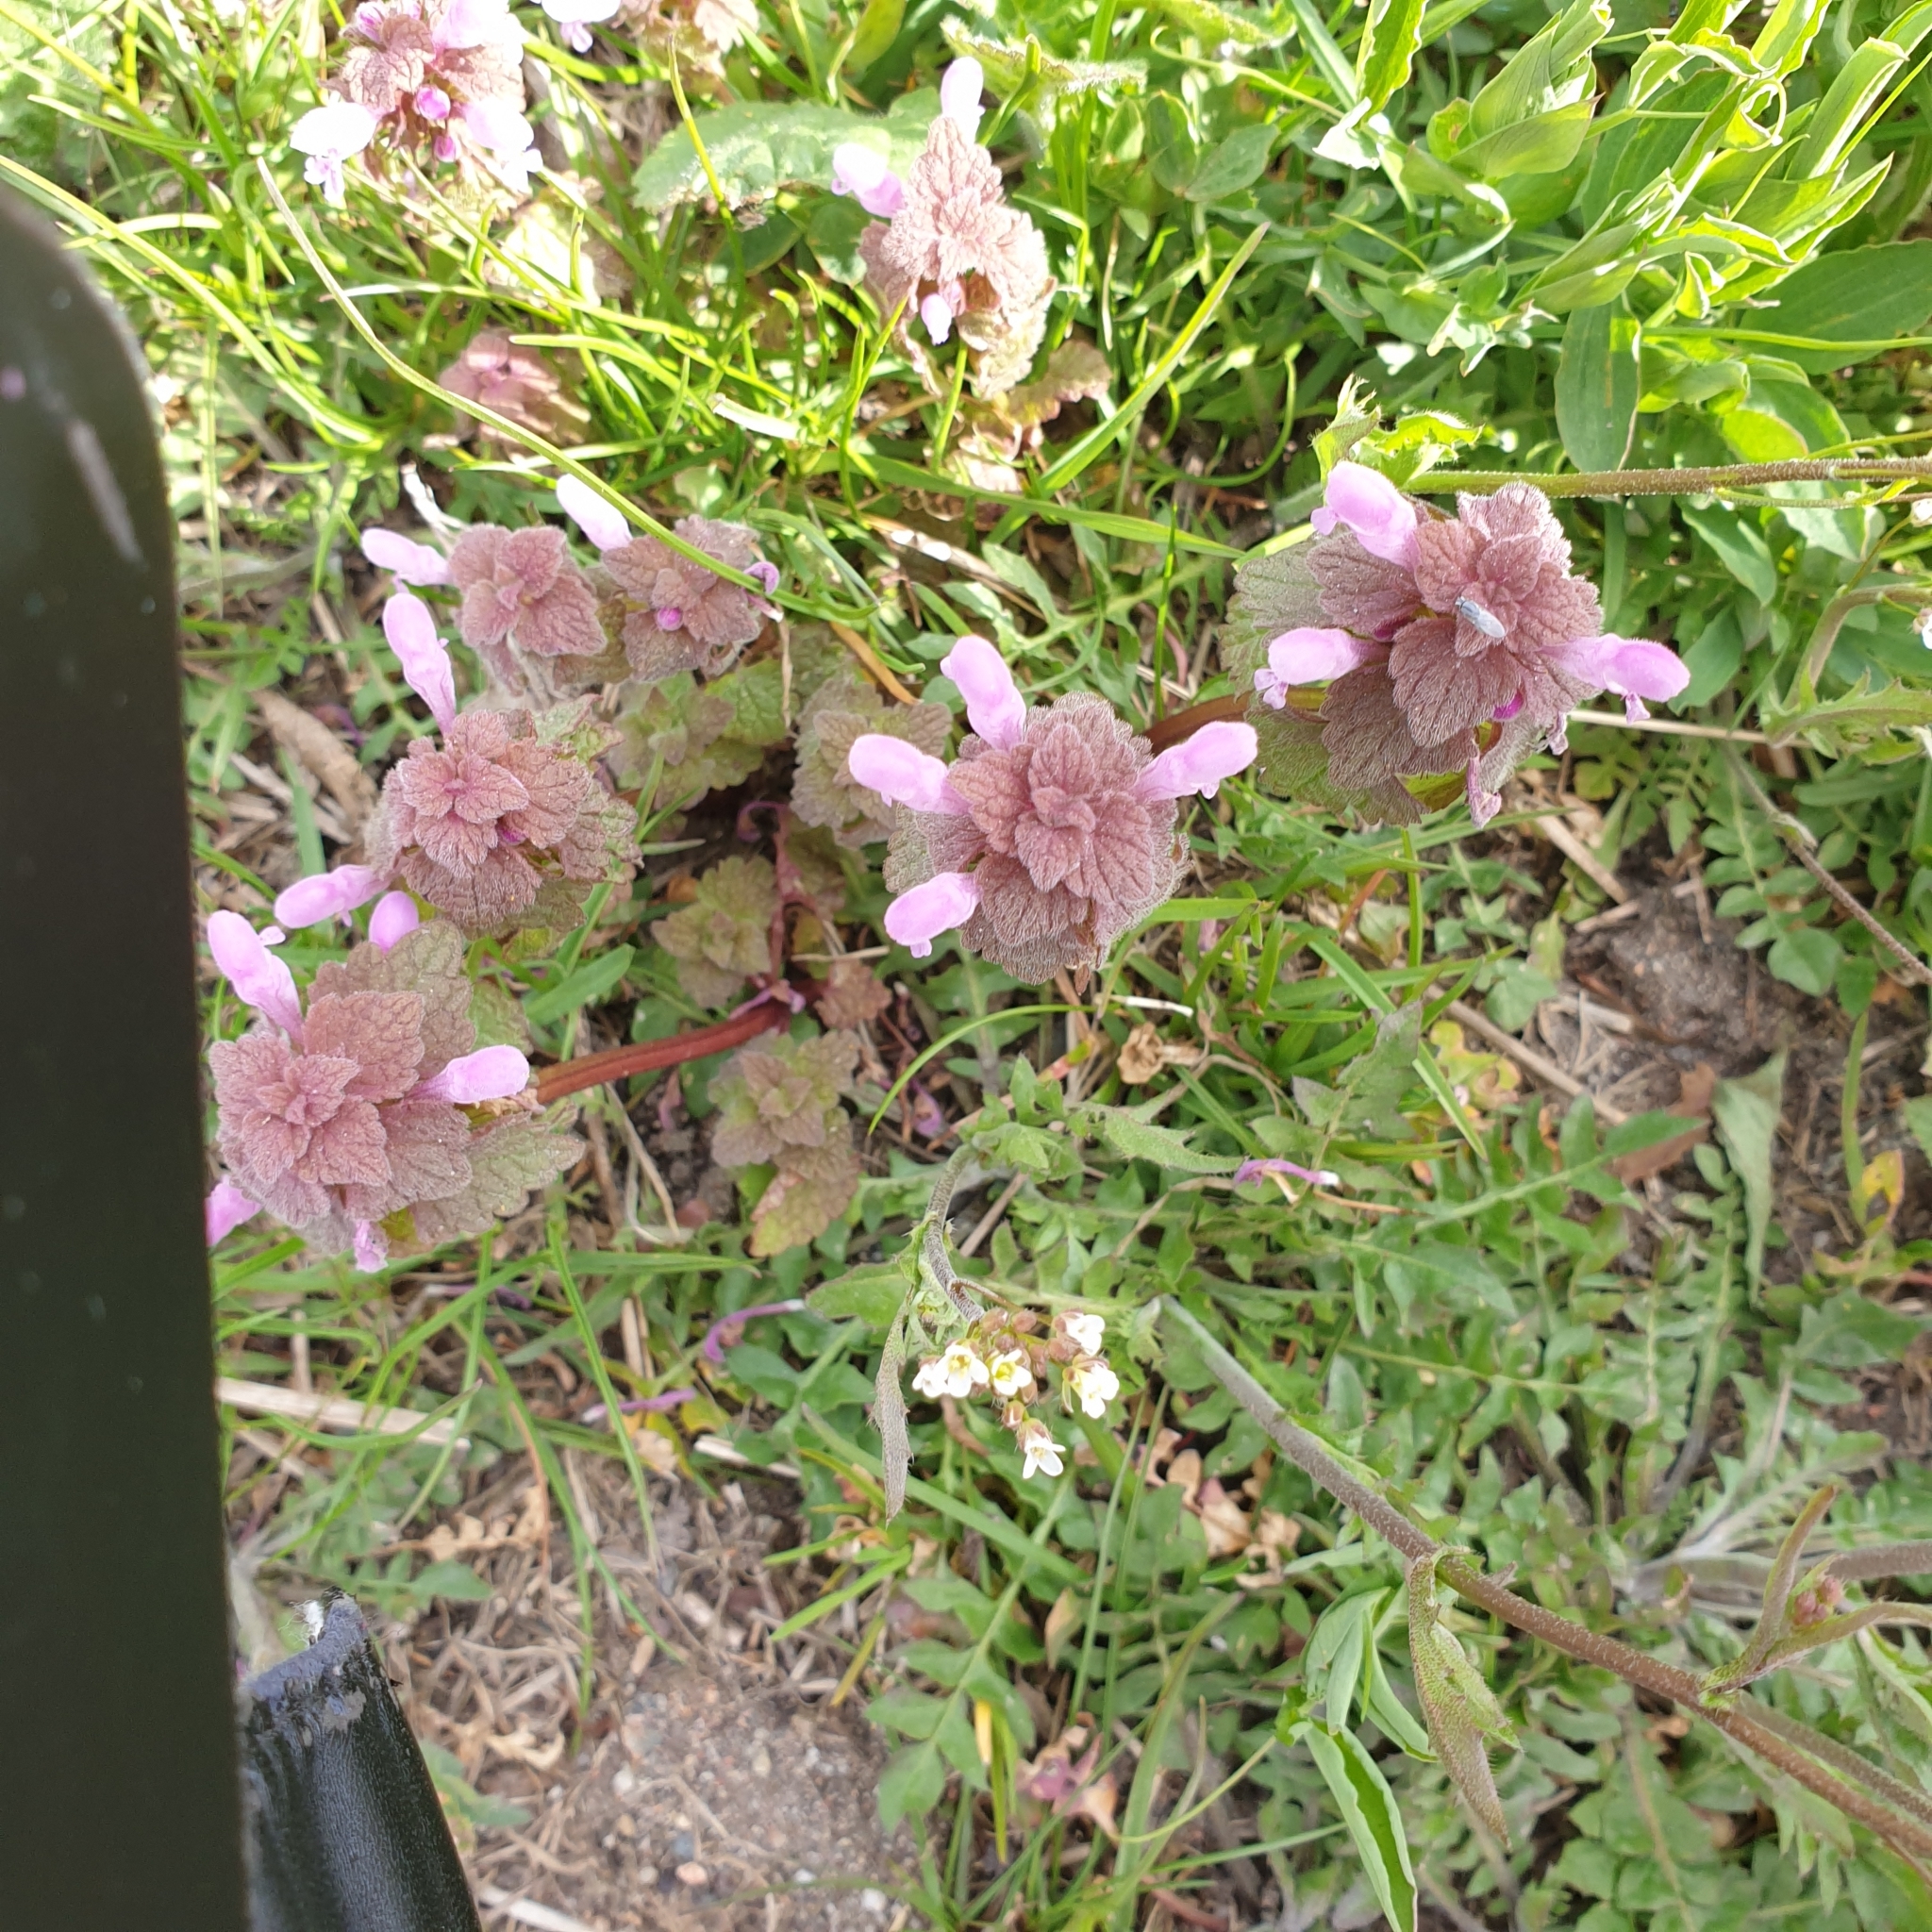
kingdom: Plantae
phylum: Tracheophyta
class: Magnoliopsida
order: Lamiales
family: Lamiaceae
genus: Lamium
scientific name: Lamium purpureum
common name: Red dead-nettle
